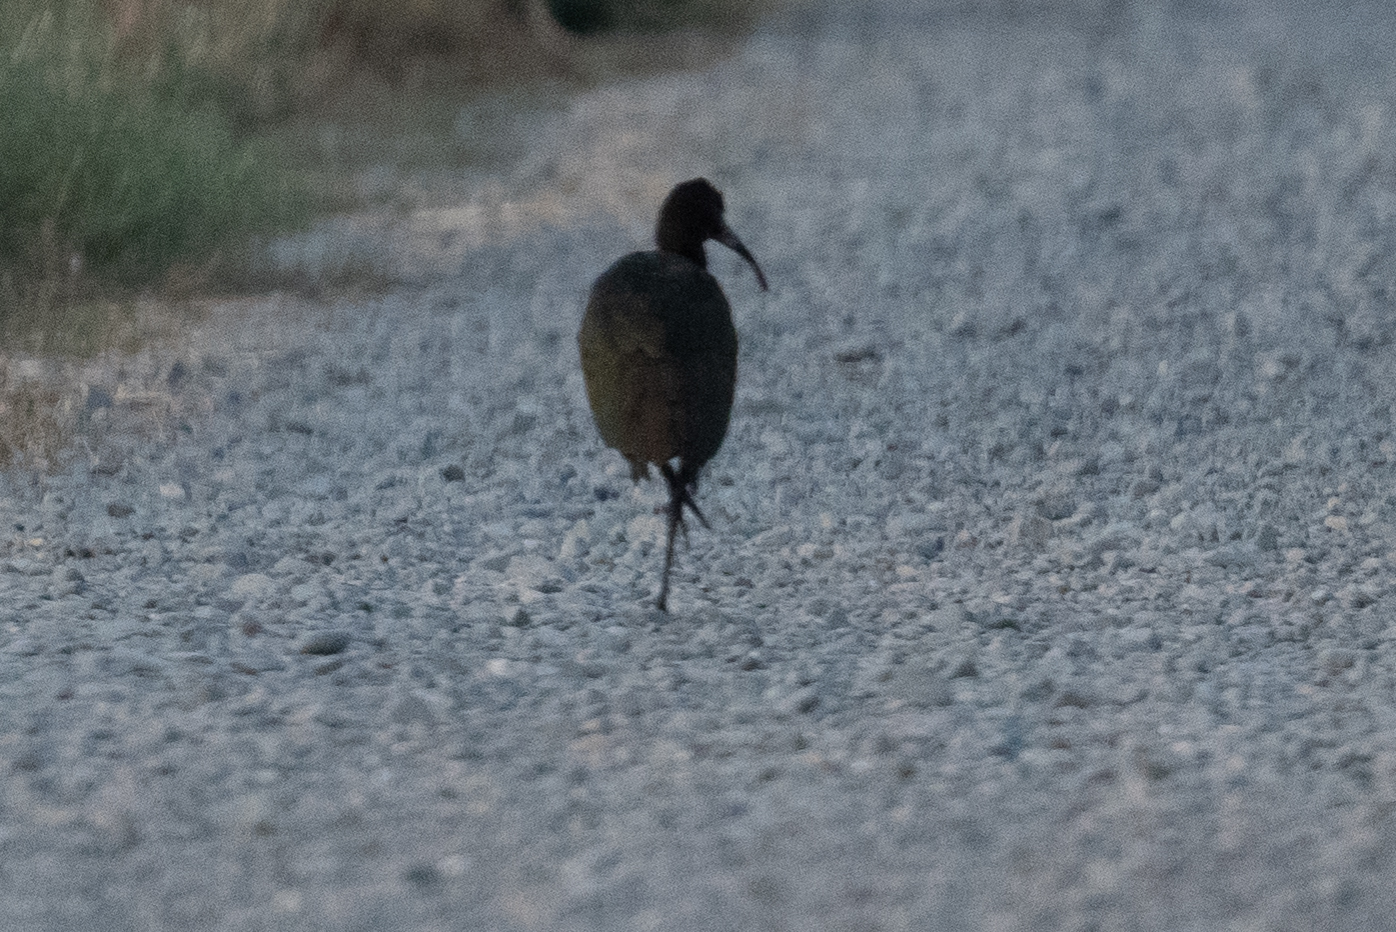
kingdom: Animalia
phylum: Chordata
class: Aves
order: Pelecaniformes
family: Threskiornithidae
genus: Plegadis
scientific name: Plegadis chihi
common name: White-faced ibis
